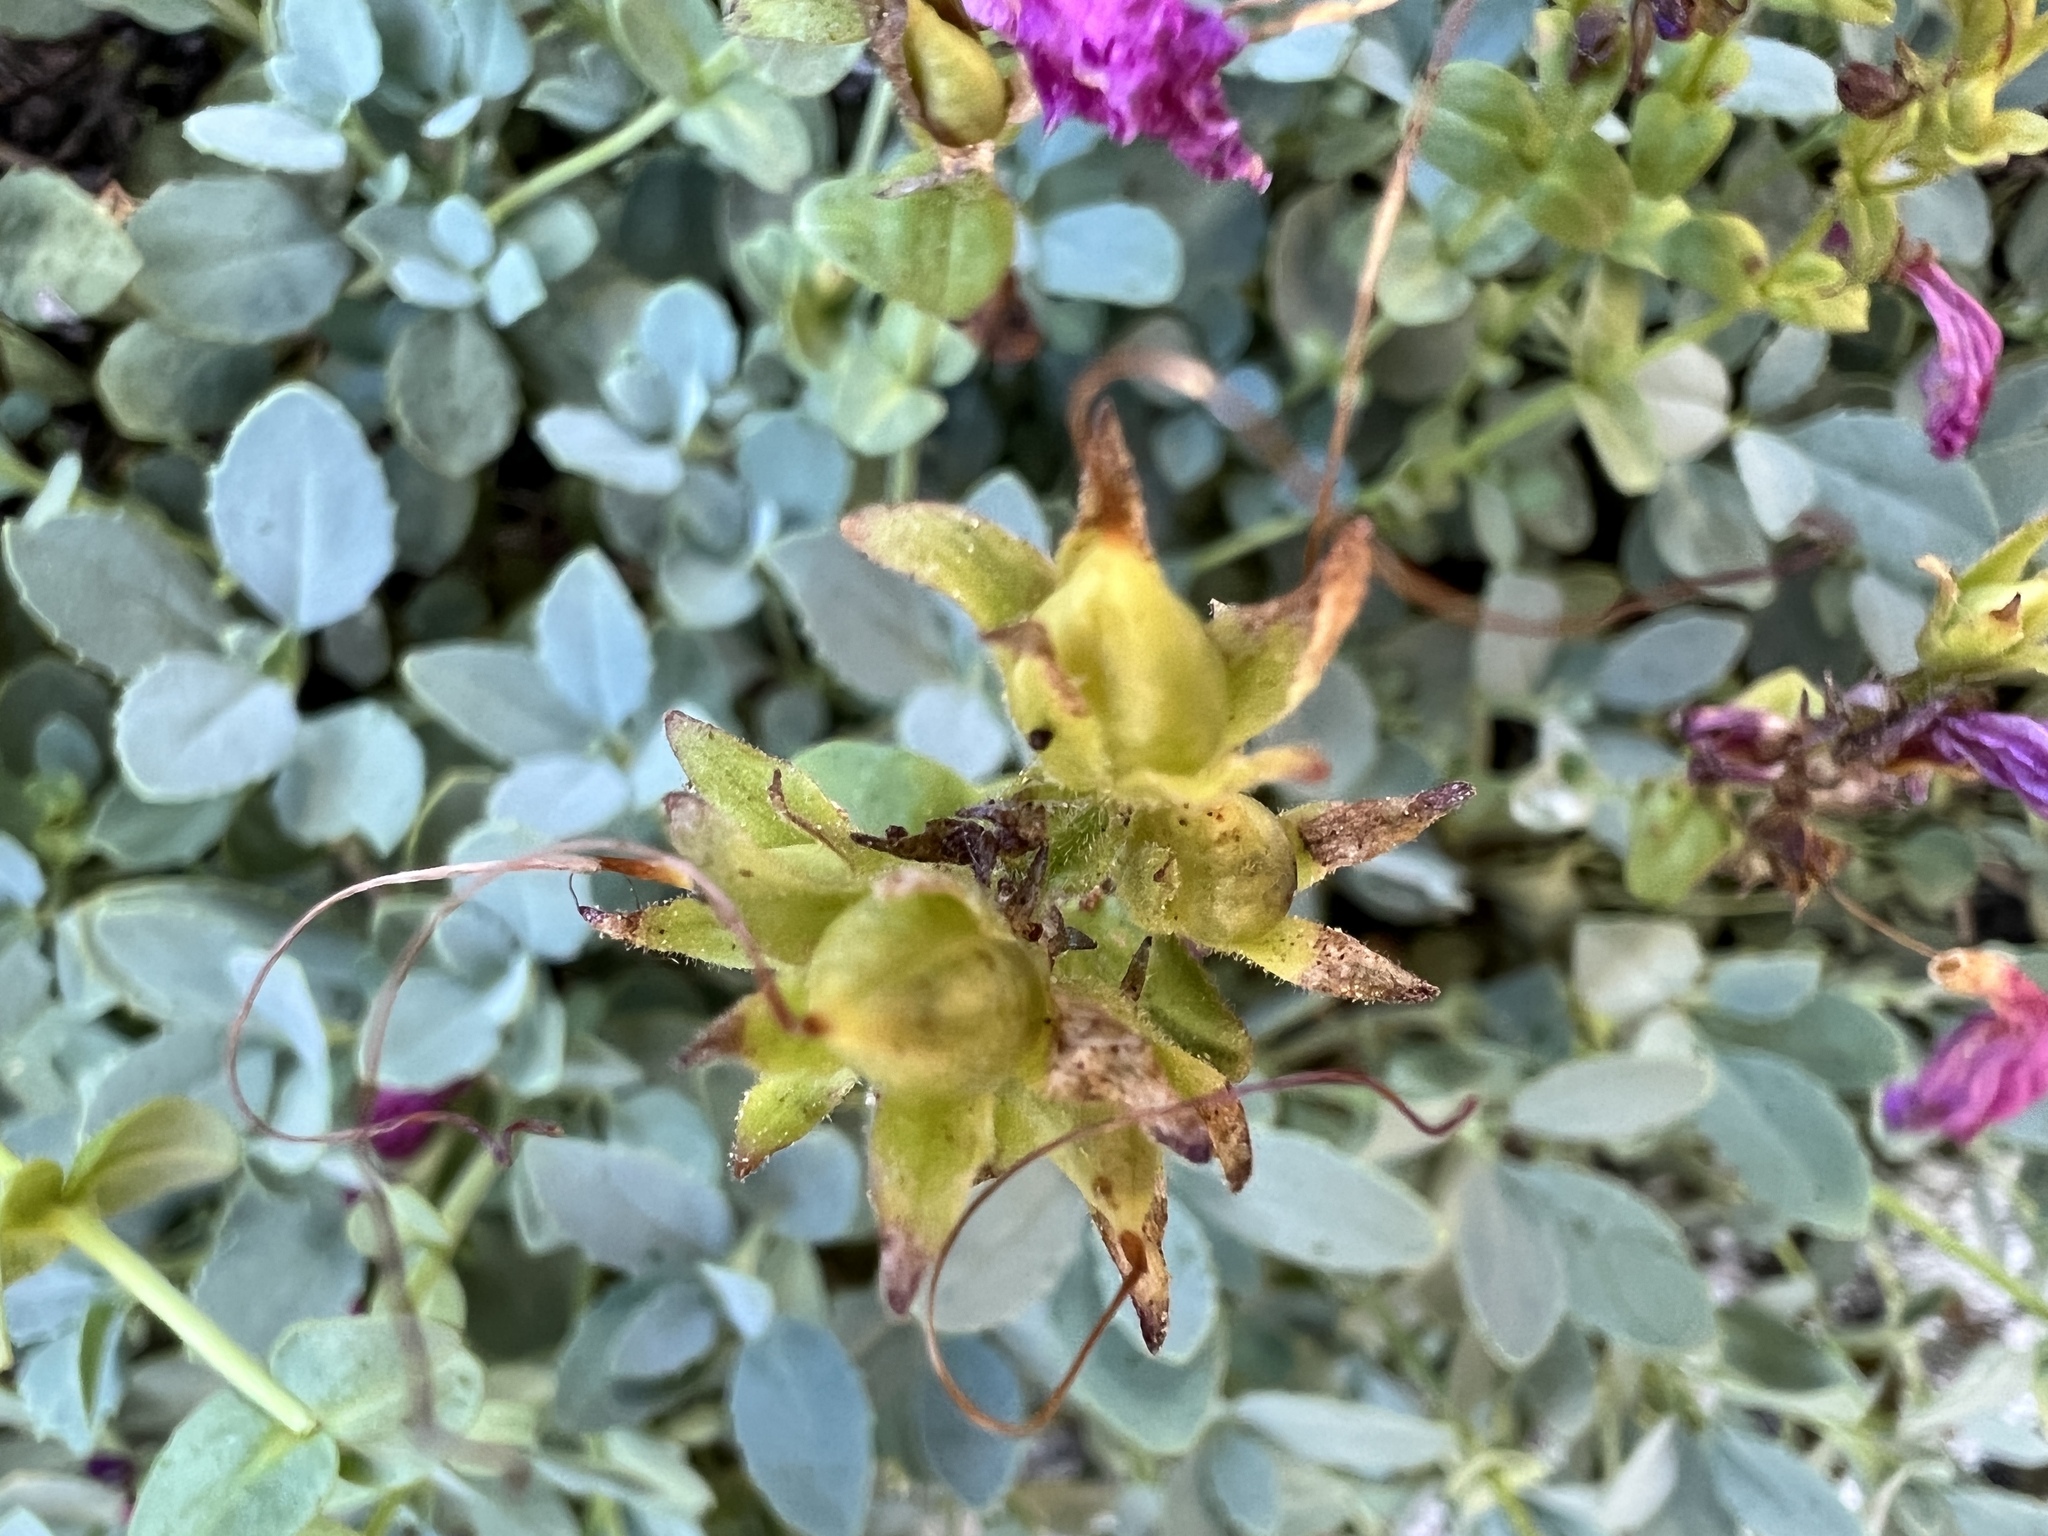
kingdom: Plantae
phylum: Tracheophyta
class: Magnoliopsida
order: Lamiales
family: Plantaginaceae
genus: Penstemon
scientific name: Penstemon rupicola
